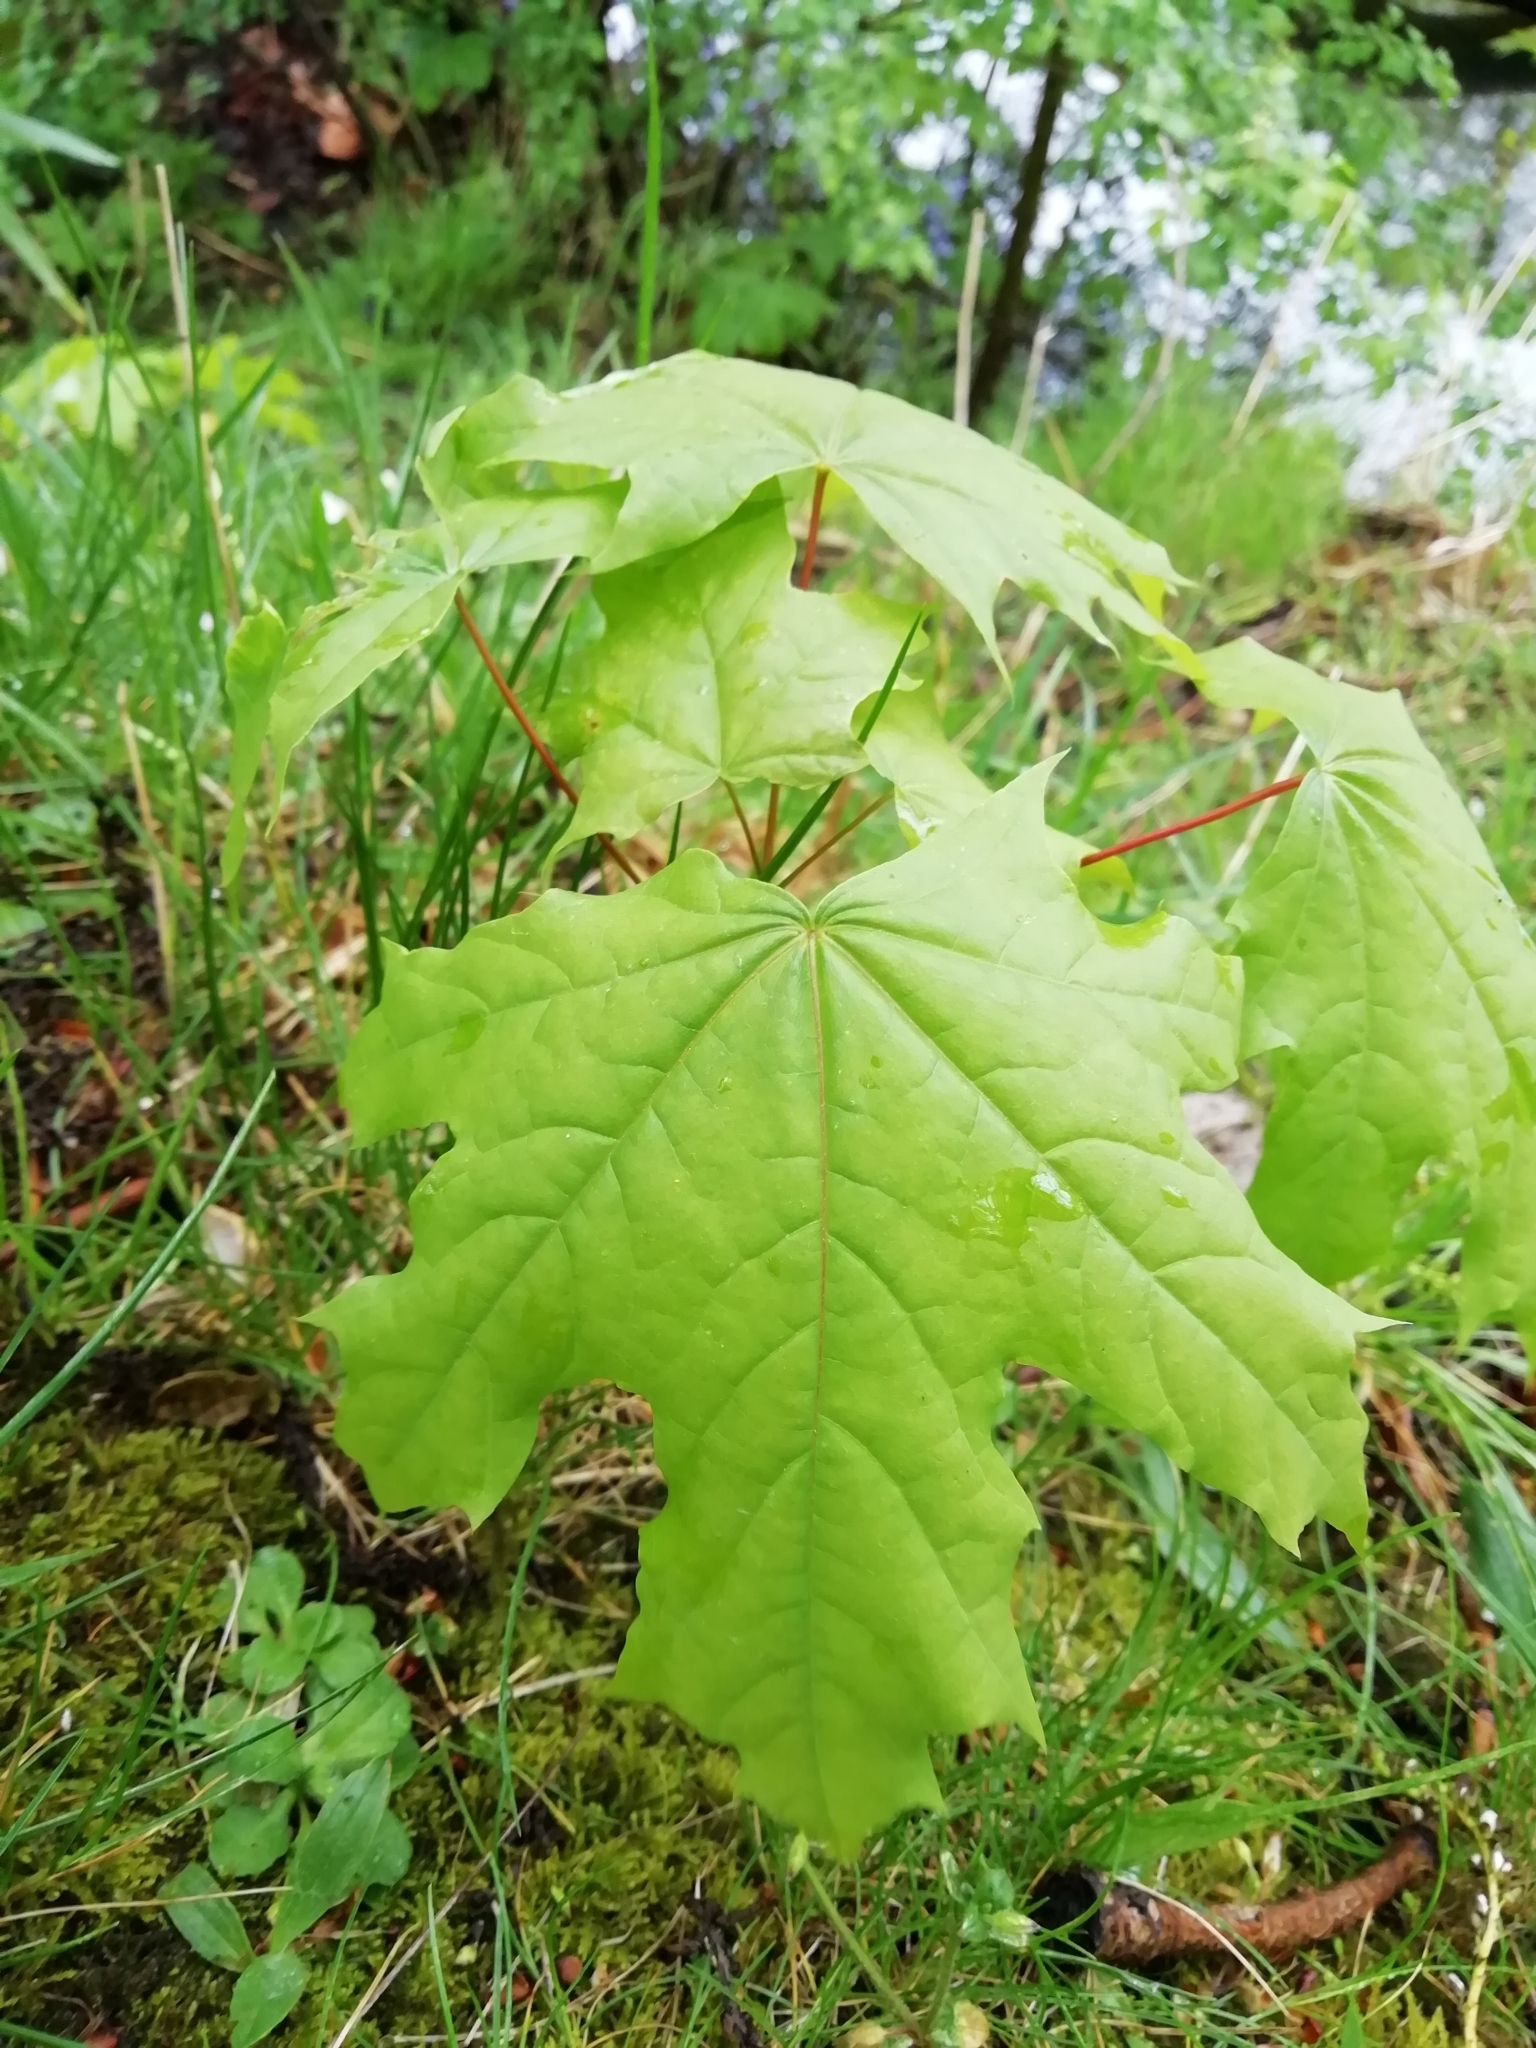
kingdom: Plantae
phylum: Tracheophyta
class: Magnoliopsida
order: Sapindales
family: Sapindaceae
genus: Acer
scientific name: Acer platanoides
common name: Norway maple
